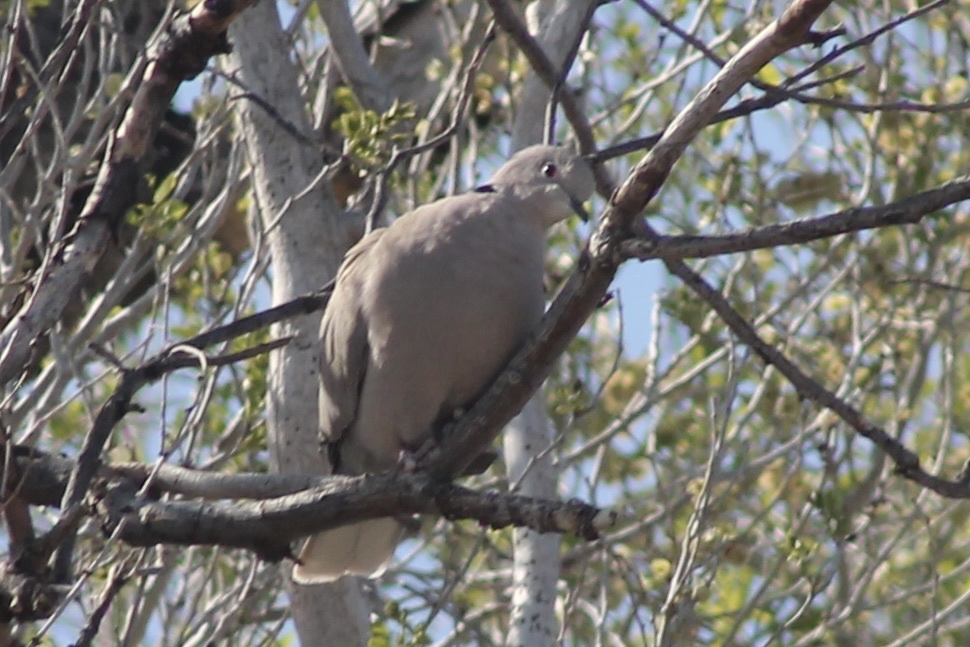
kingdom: Animalia
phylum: Chordata
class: Aves
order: Columbiformes
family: Columbidae
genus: Streptopelia
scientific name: Streptopelia decaocto
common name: Eurasian collared dove
